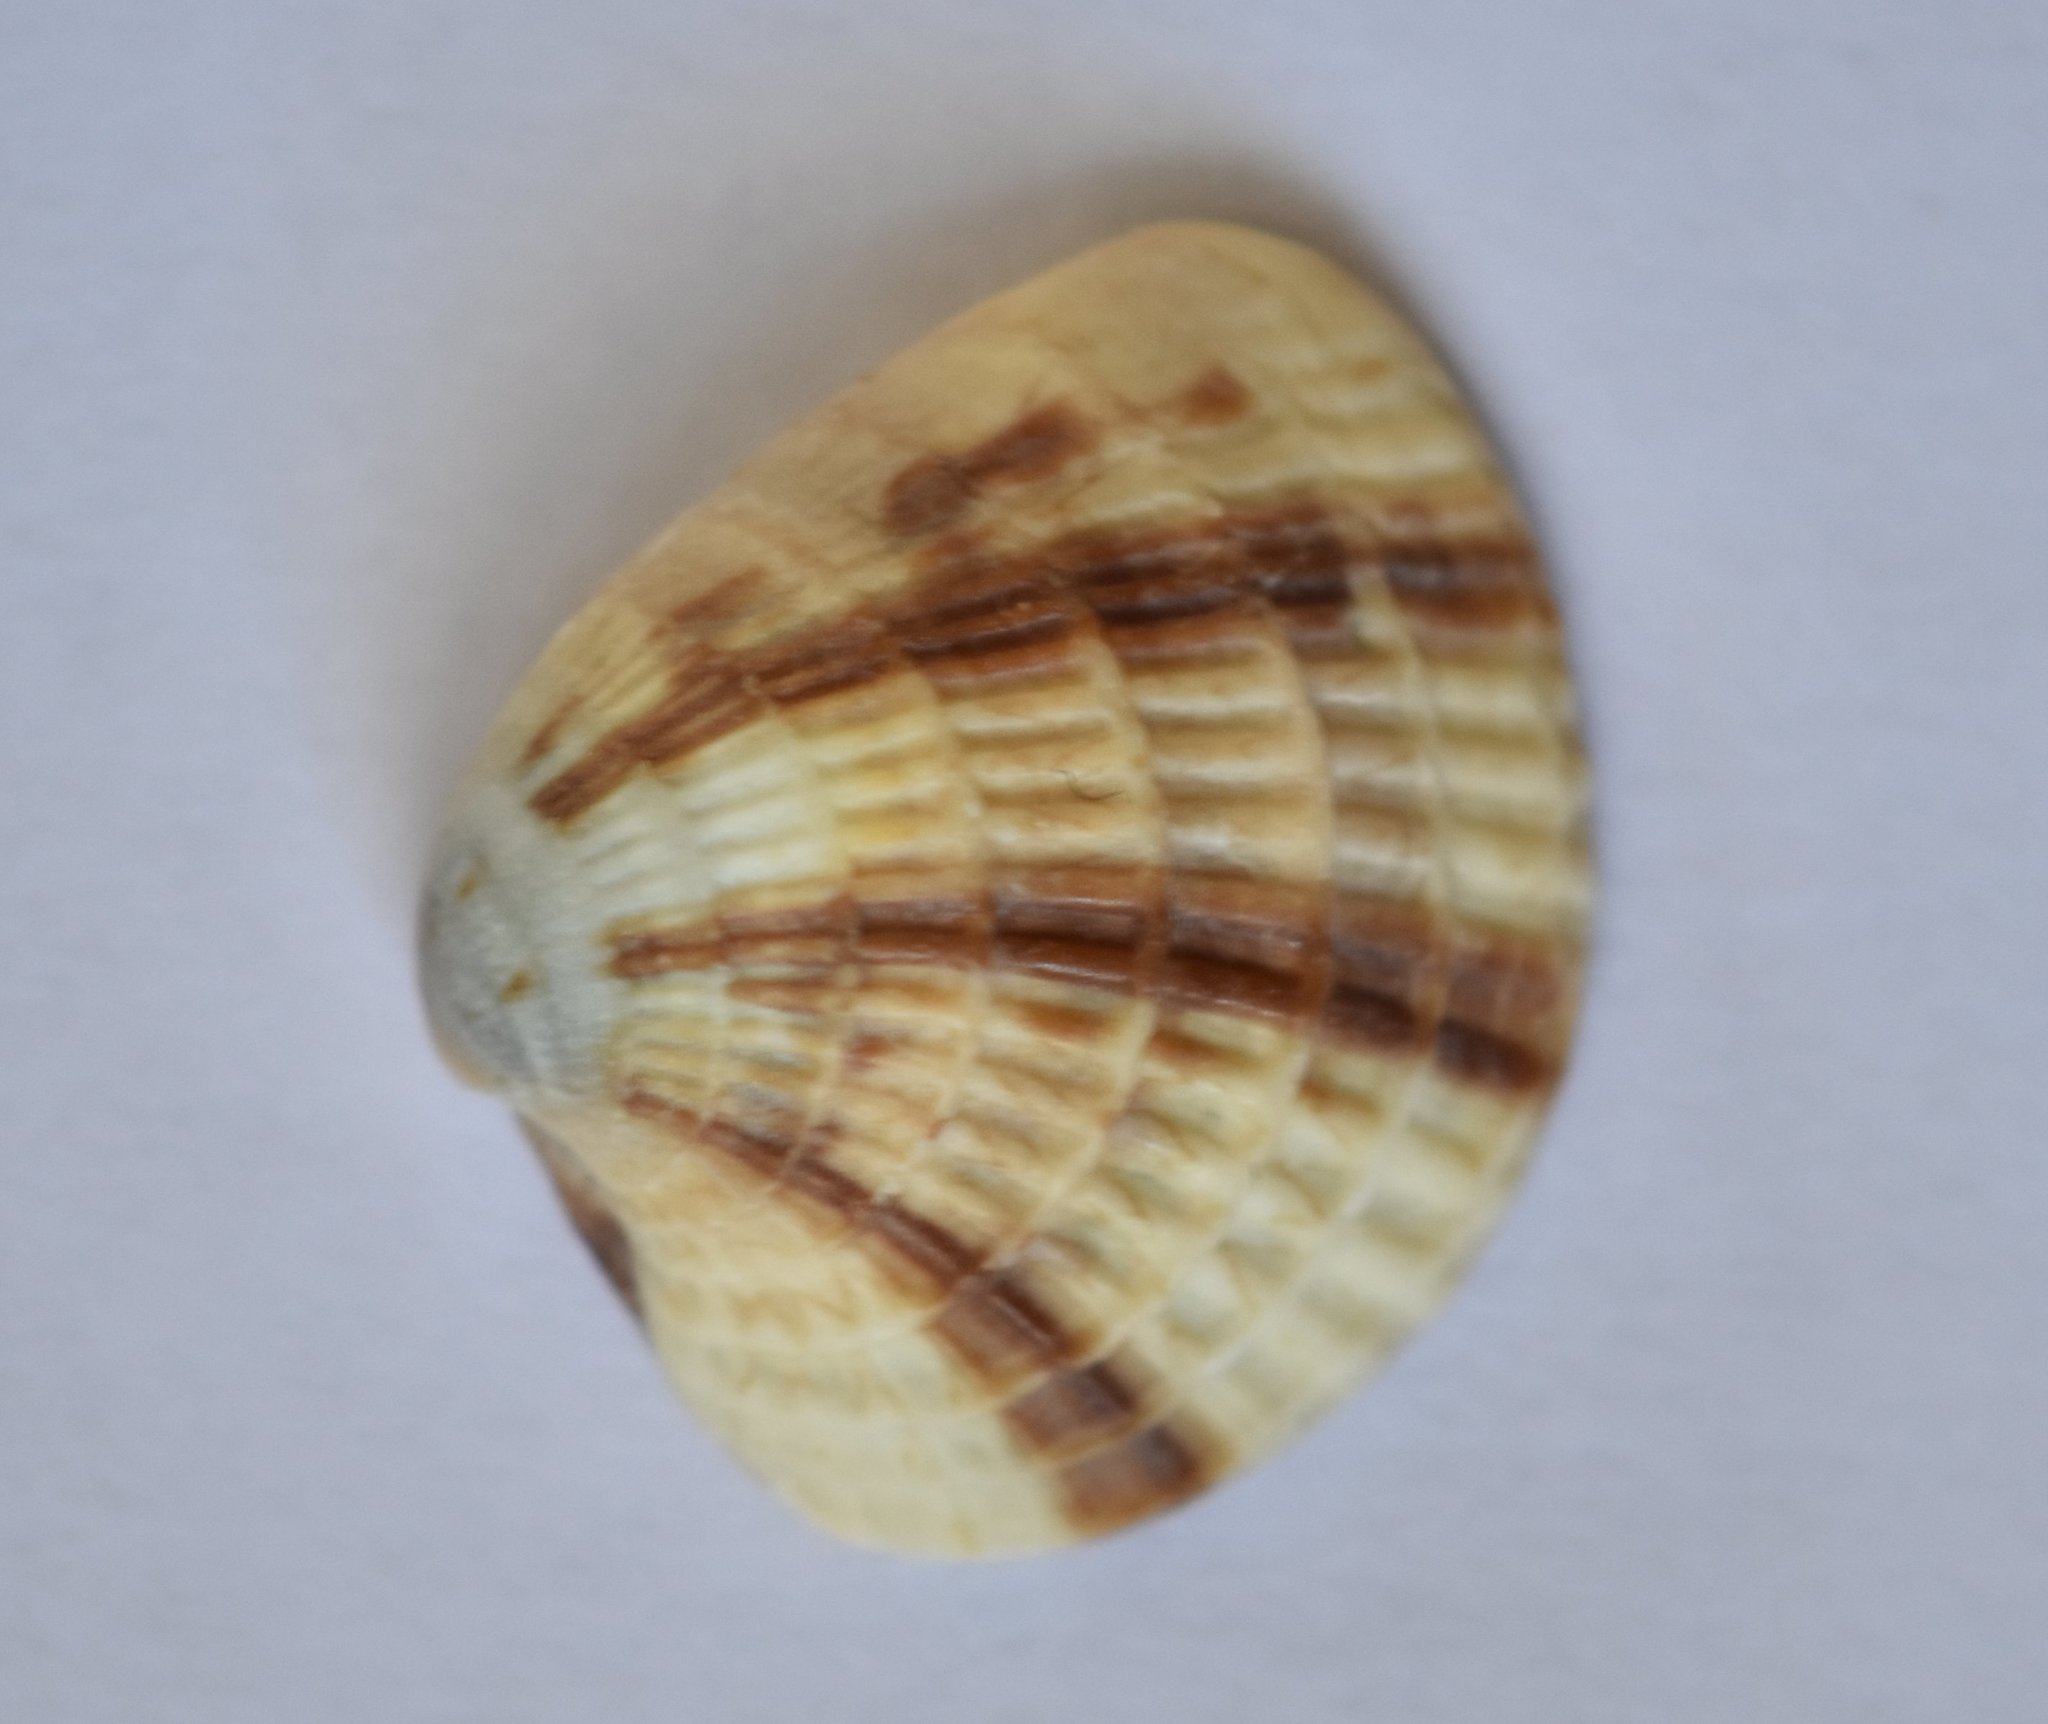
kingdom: Animalia
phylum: Mollusca
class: Bivalvia
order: Venerida
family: Veneridae
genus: Chione
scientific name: Chione elevata
